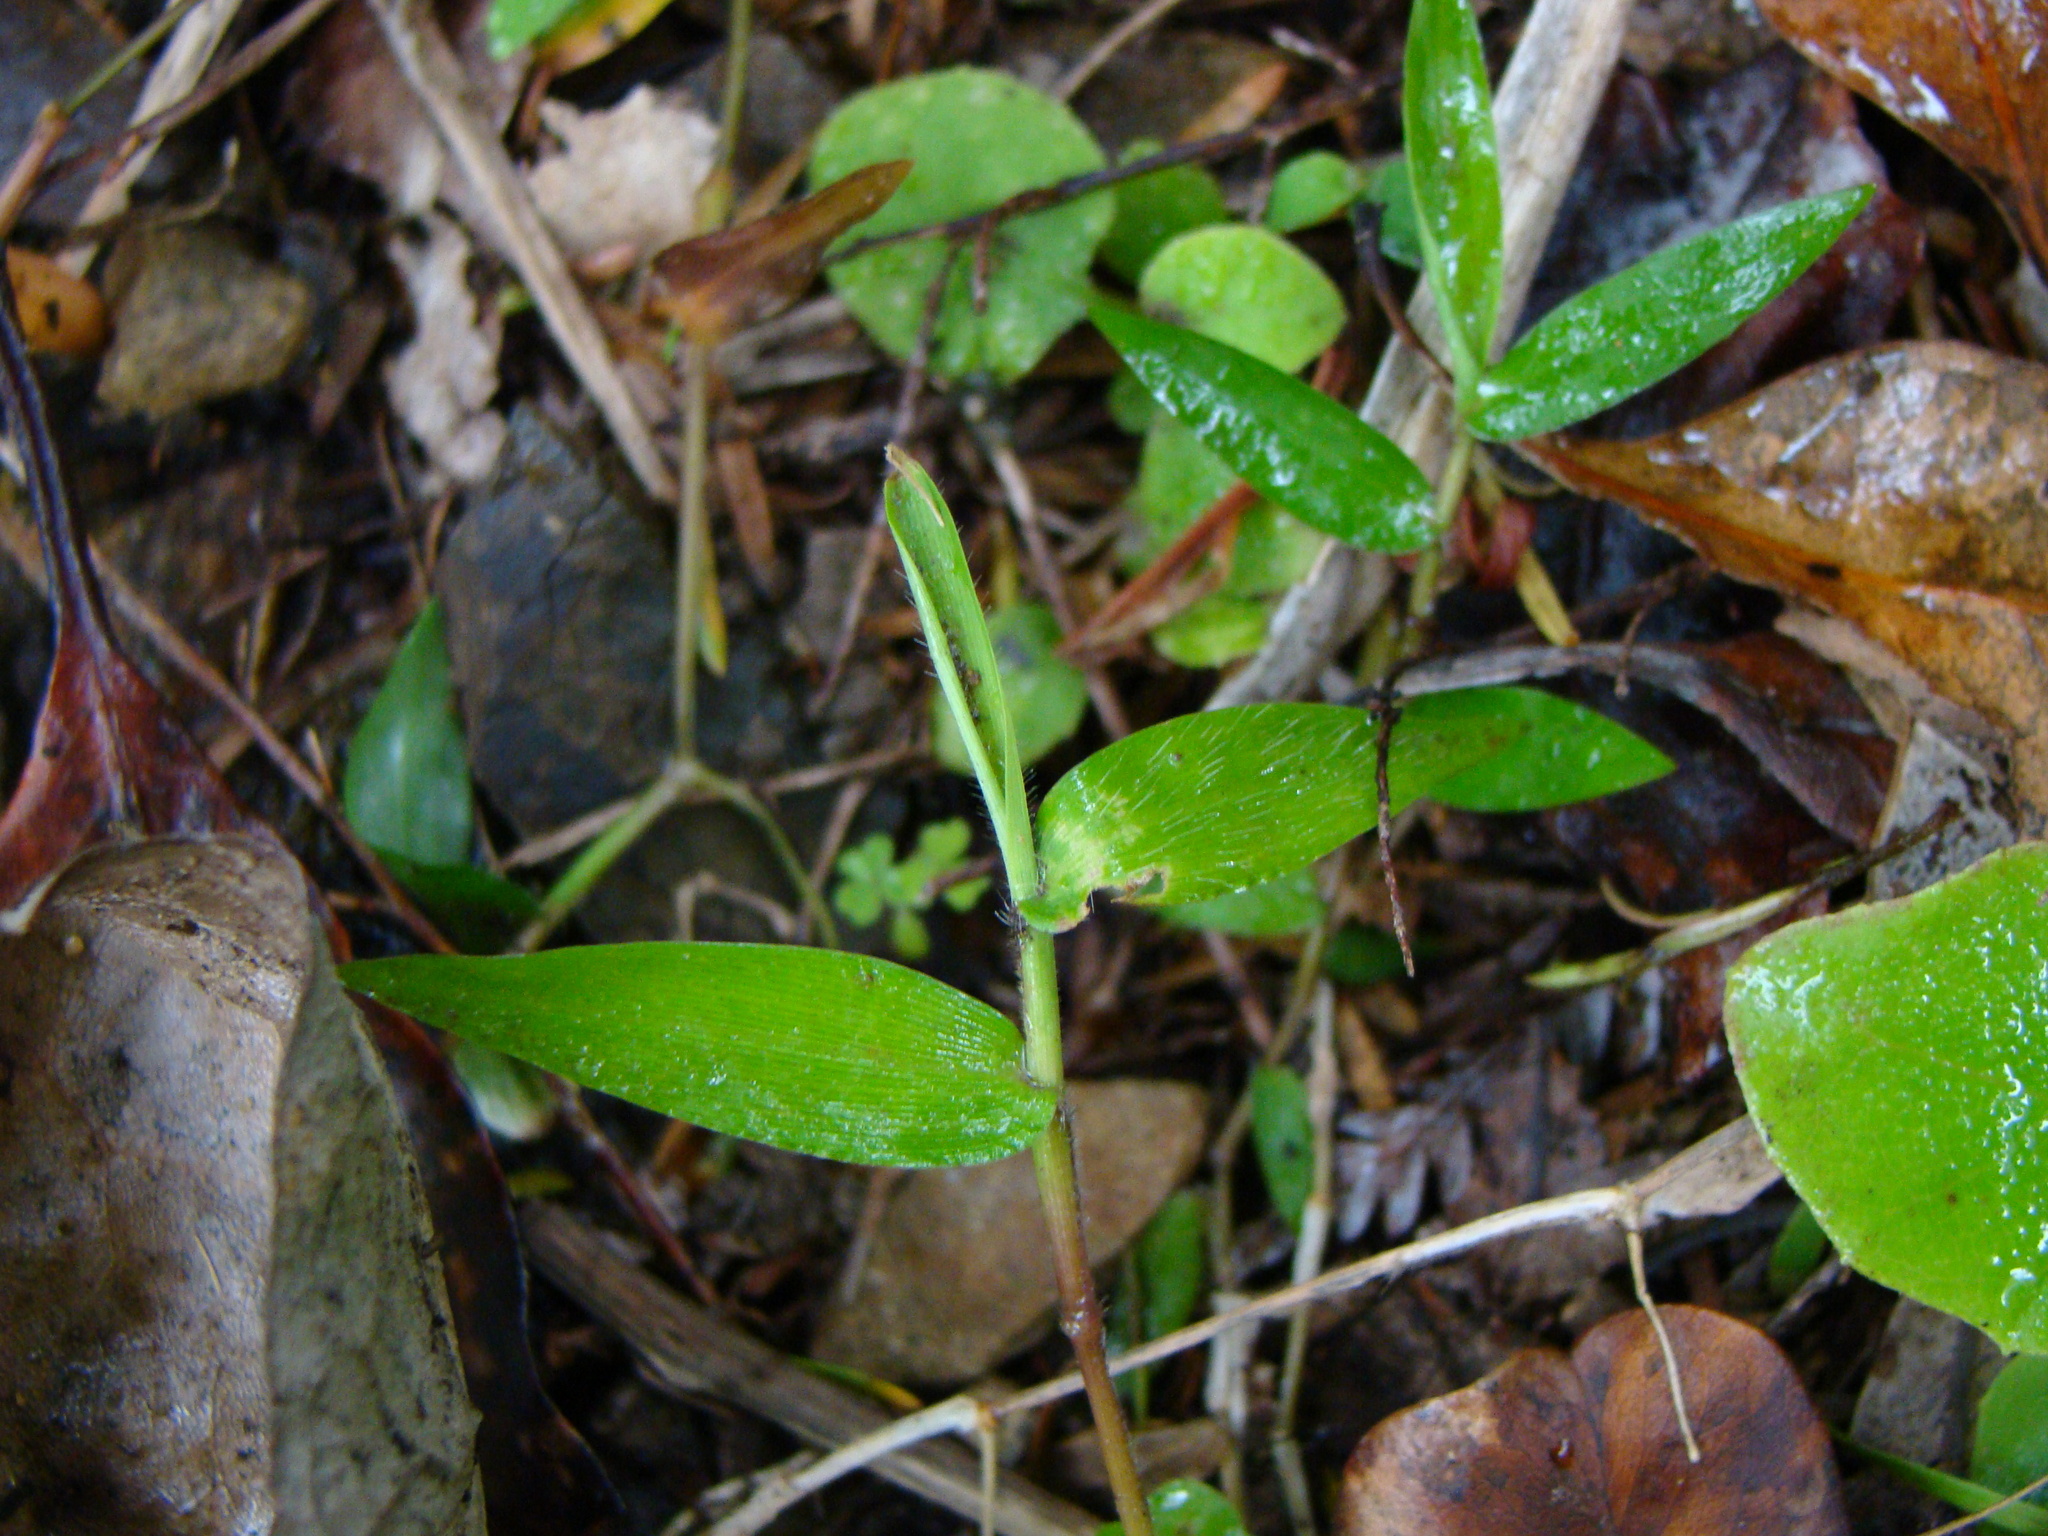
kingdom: Plantae
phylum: Tracheophyta
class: Liliopsida
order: Poales
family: Poaceae
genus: Oplismenus
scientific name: Oplismenus hirtellus
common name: Basketgrass
